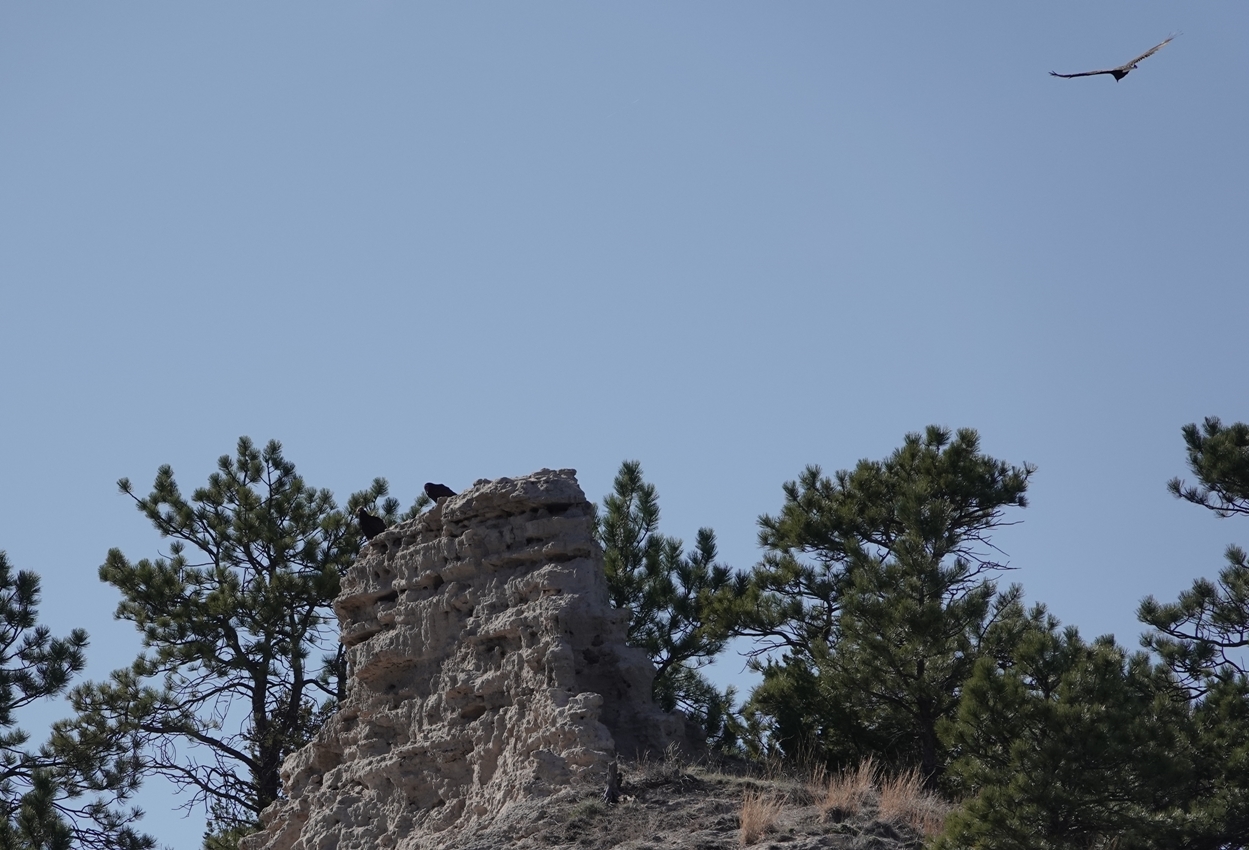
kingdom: Animalia
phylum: Chordata
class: Aves
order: Accipitriformes
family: Cathartidae
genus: Cathartes
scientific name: Cathartes aura
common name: Turkey vulture
